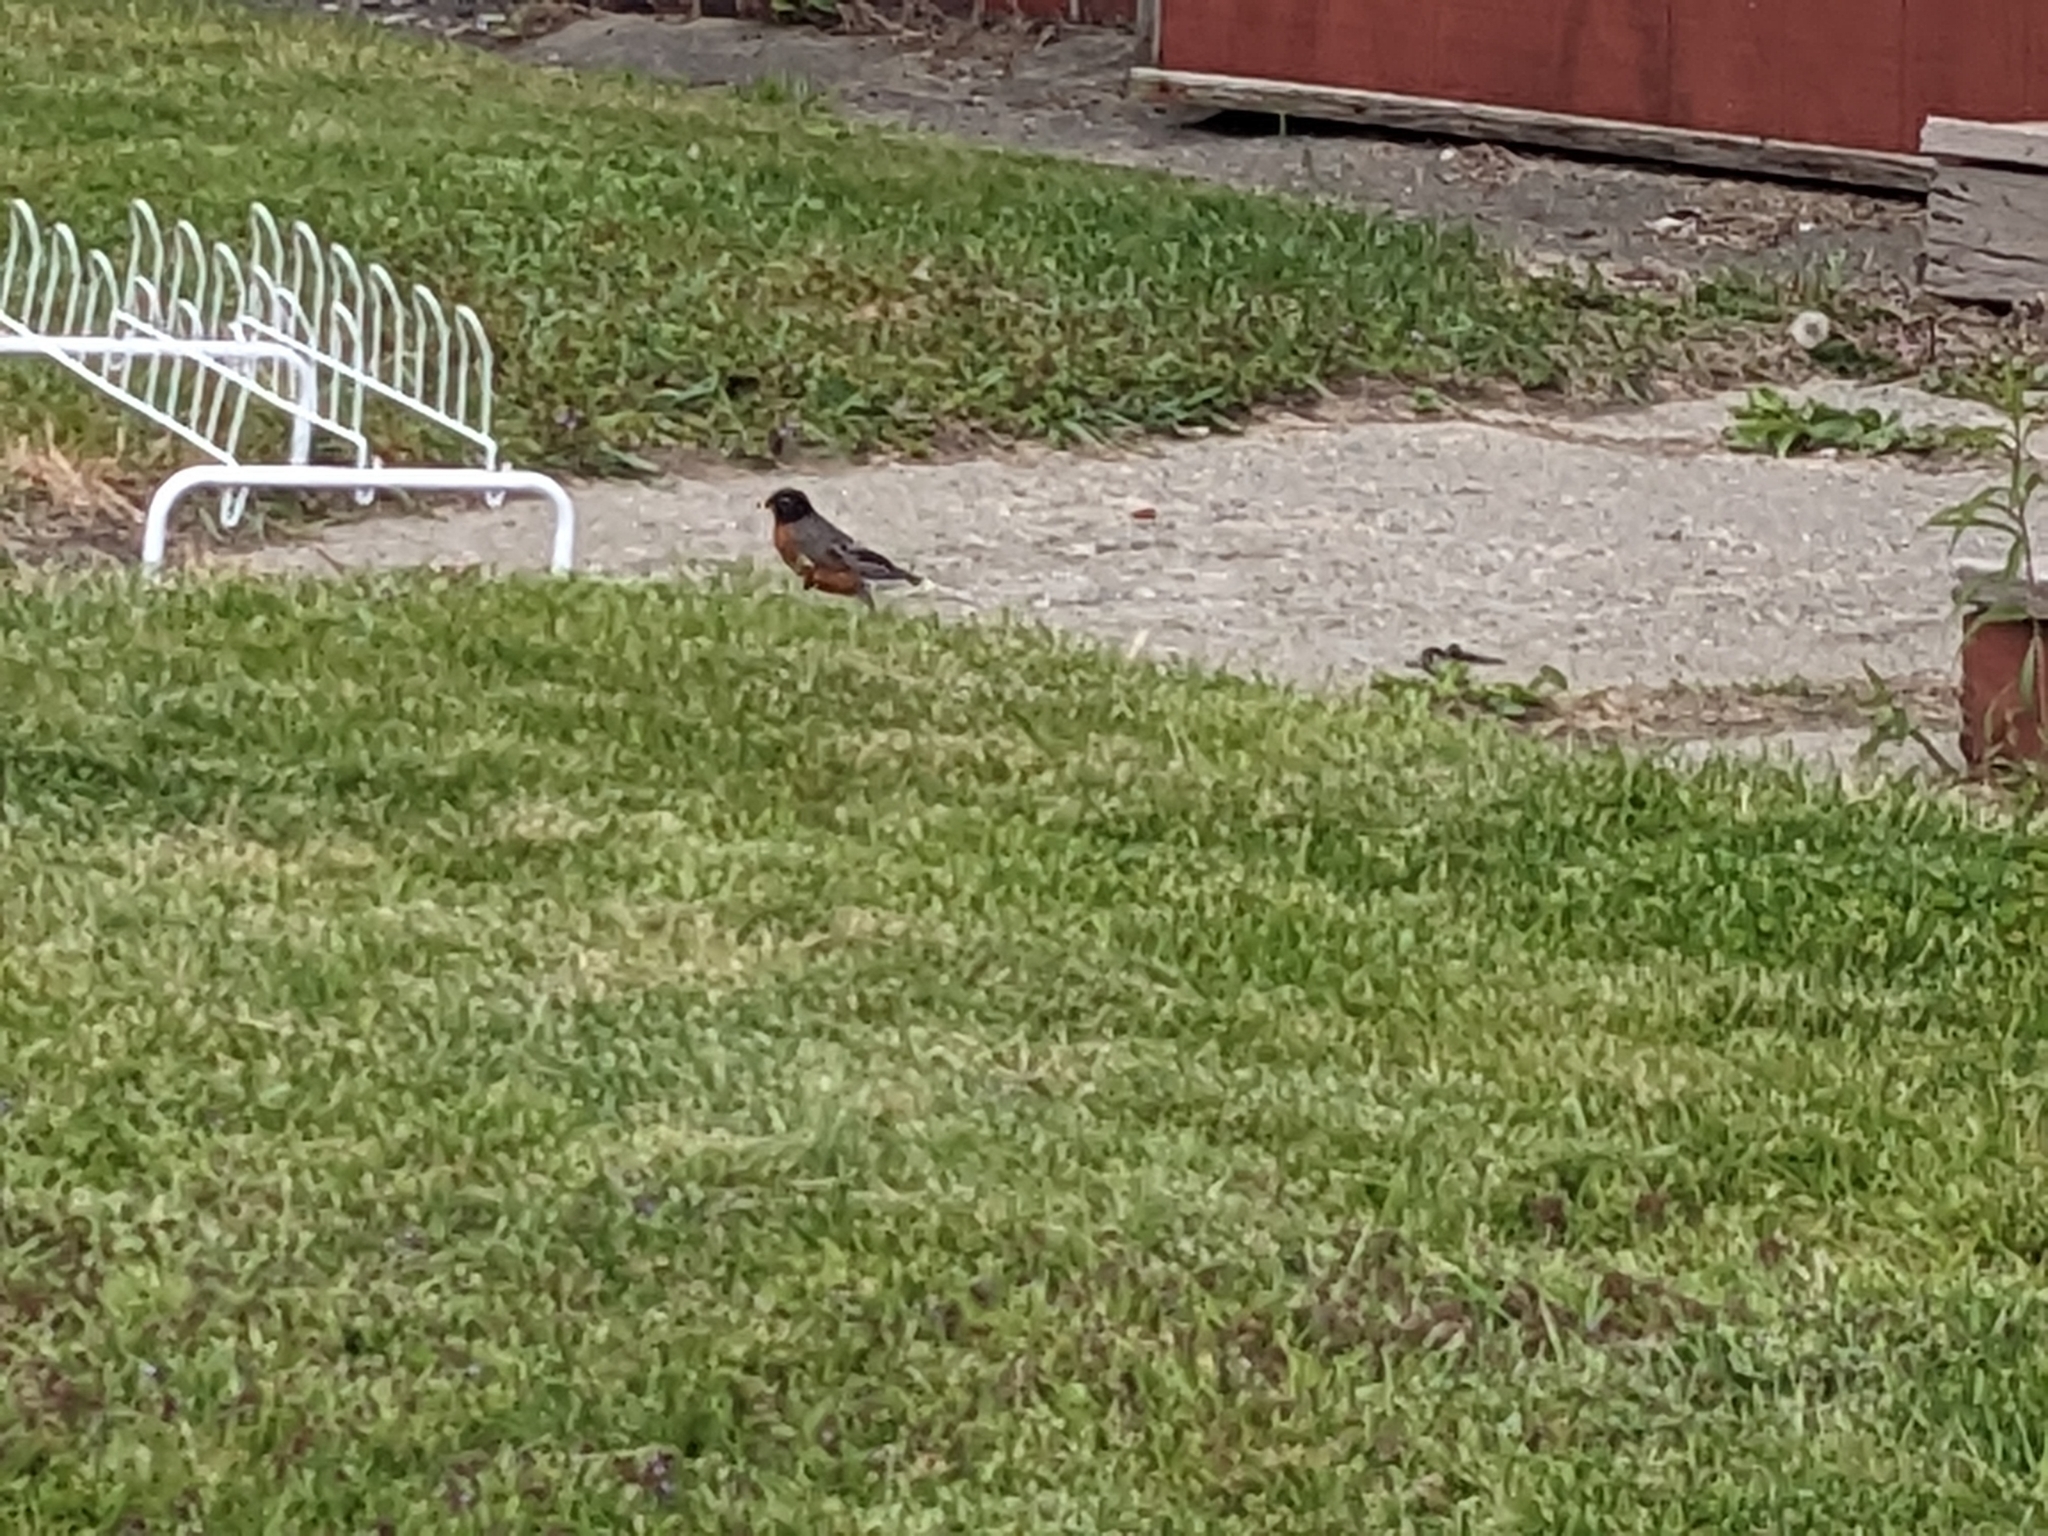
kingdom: Animalia
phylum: Chordata
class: Aves
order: Passeriformes
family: Turdidae
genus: Turdus
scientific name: Turdus migratorius
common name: American robin
